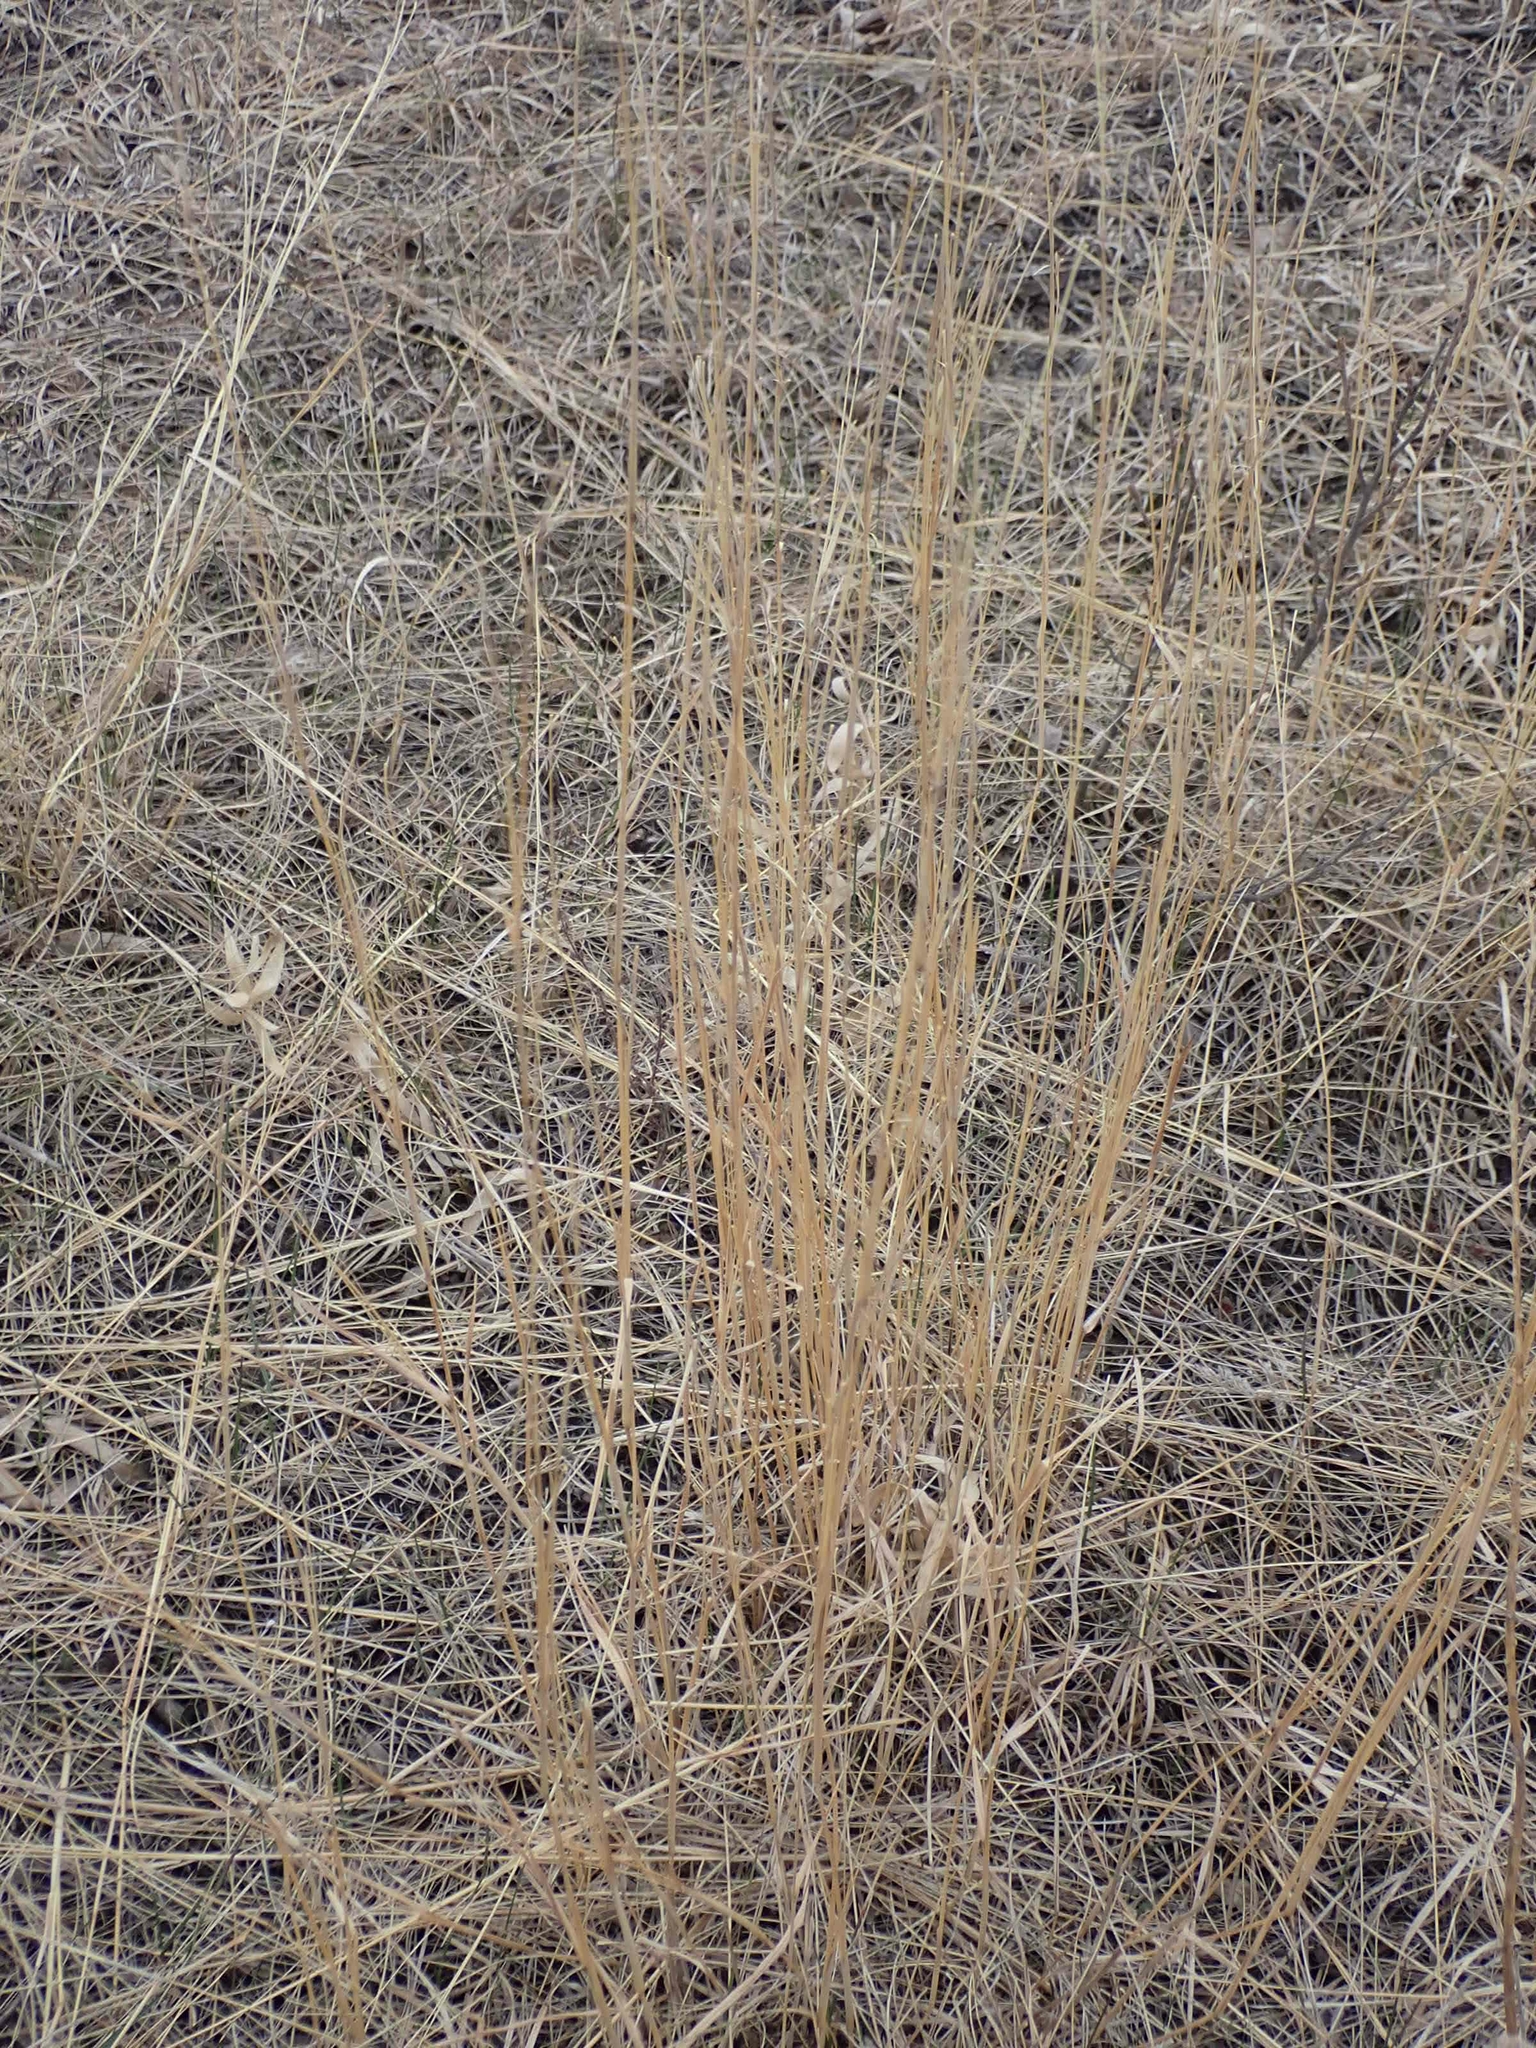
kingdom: Plantae
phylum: Tracheophyta
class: Liliopsida
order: Poales
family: Poaceae
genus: Andropogon
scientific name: Andropogon gerardi
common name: Big bluestem
